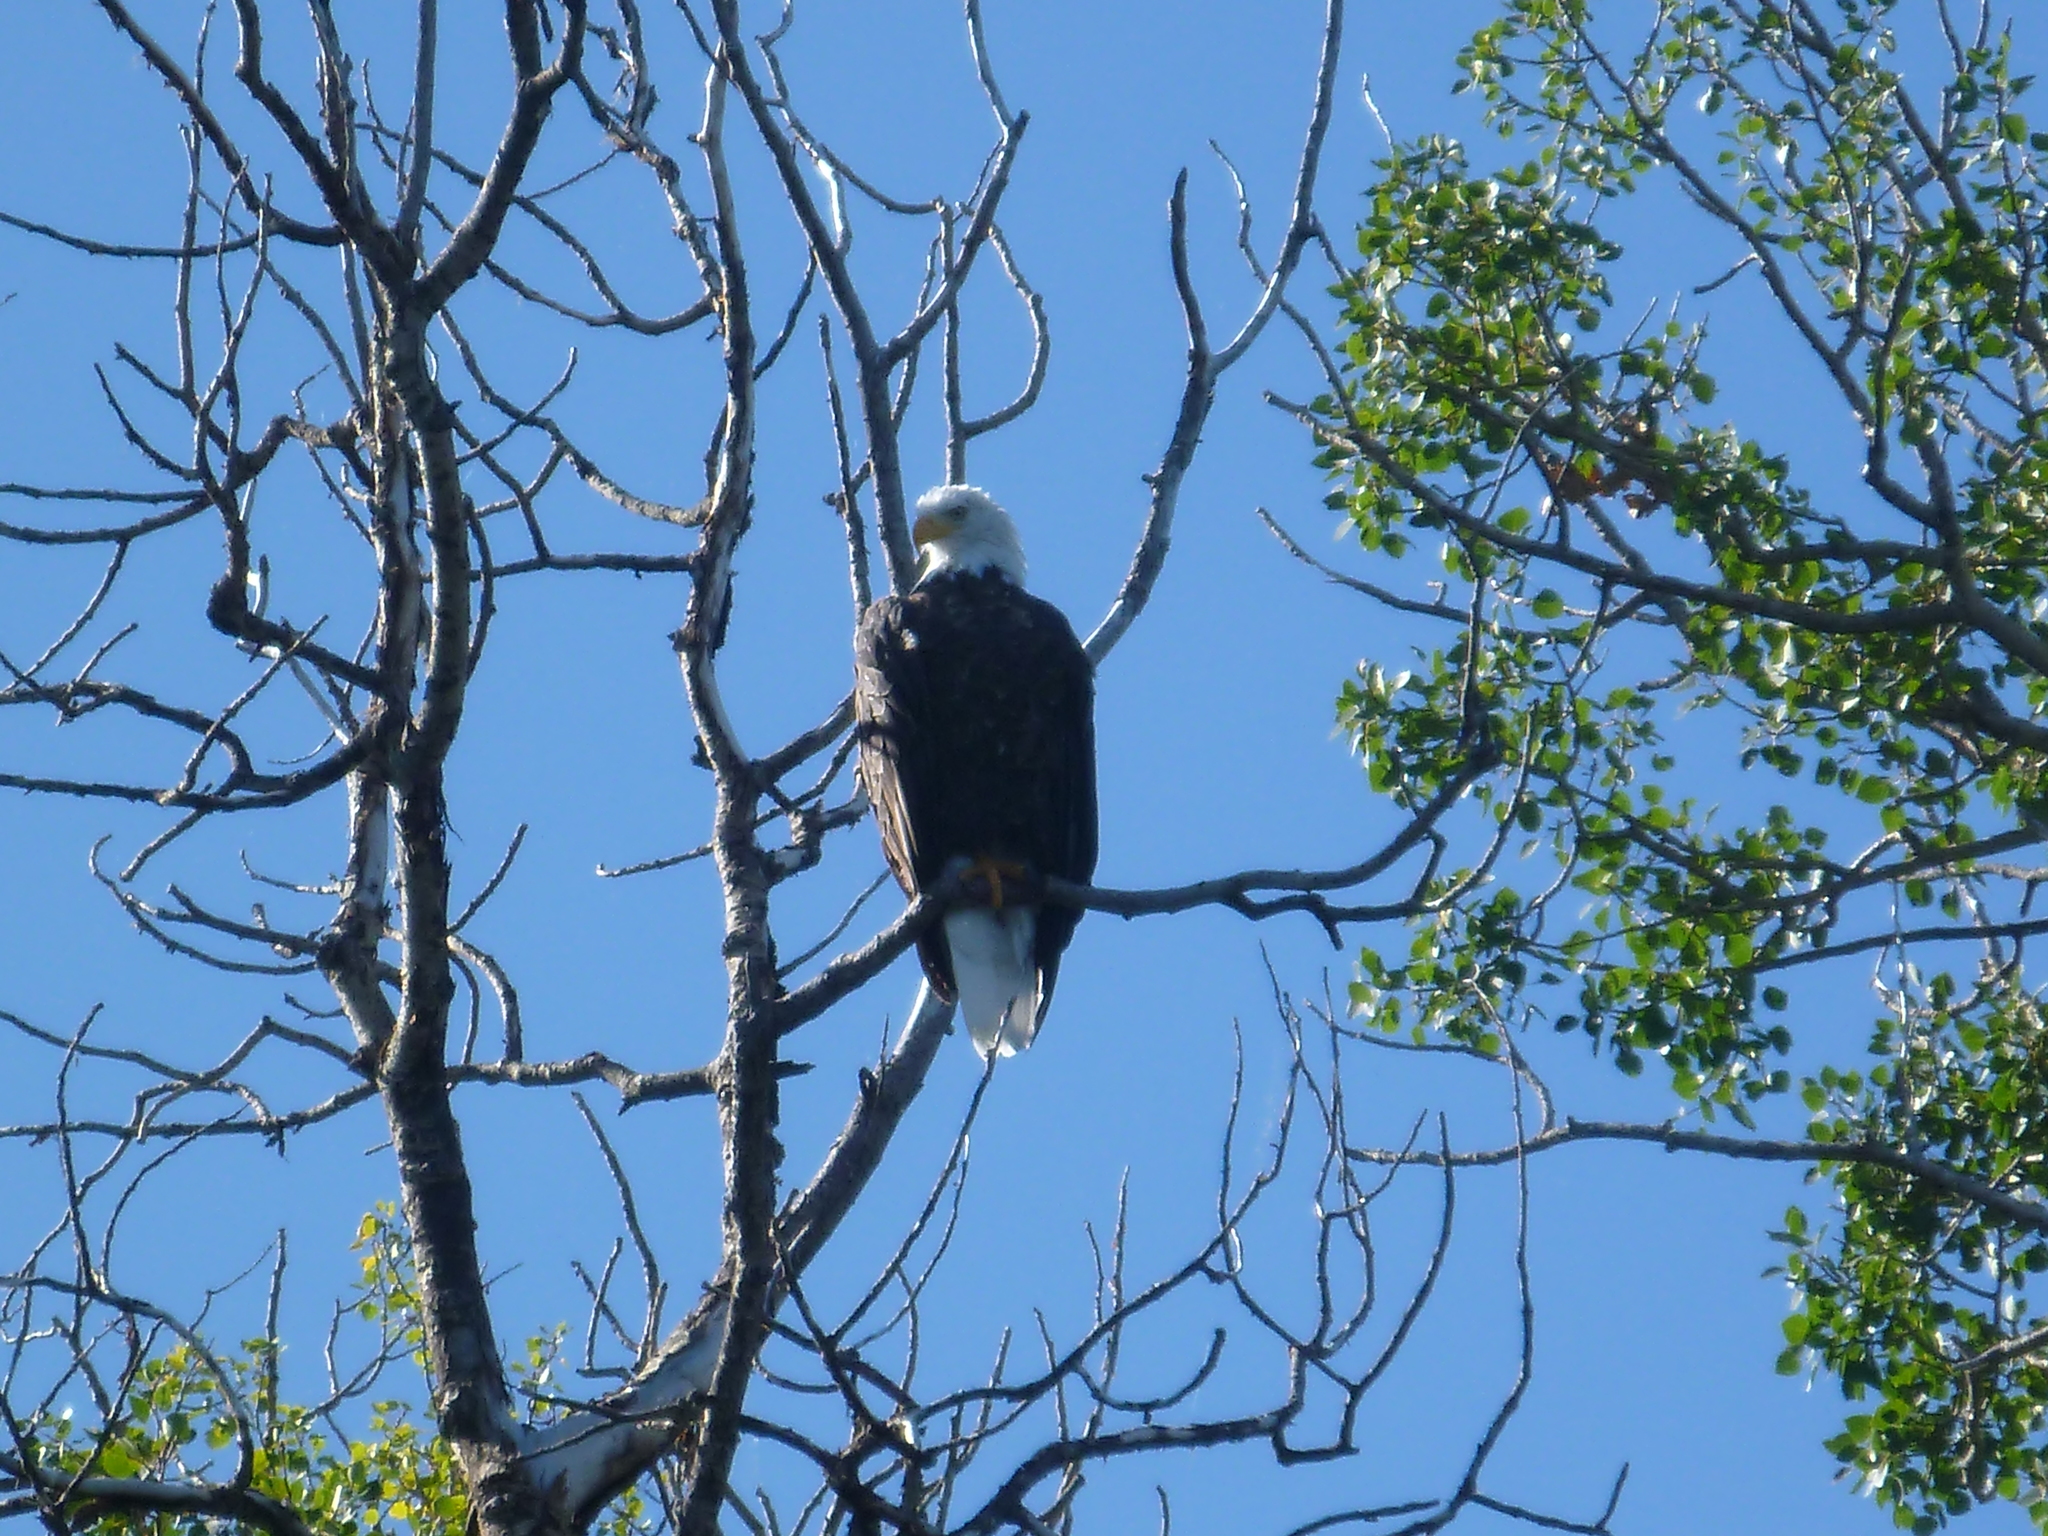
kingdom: Animalia
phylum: Chordata
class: Aves
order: Accipitriformes
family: Accipitridae
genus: Haliaeetus
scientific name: Haliaeetus leucocephalus
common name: Bald eagle
